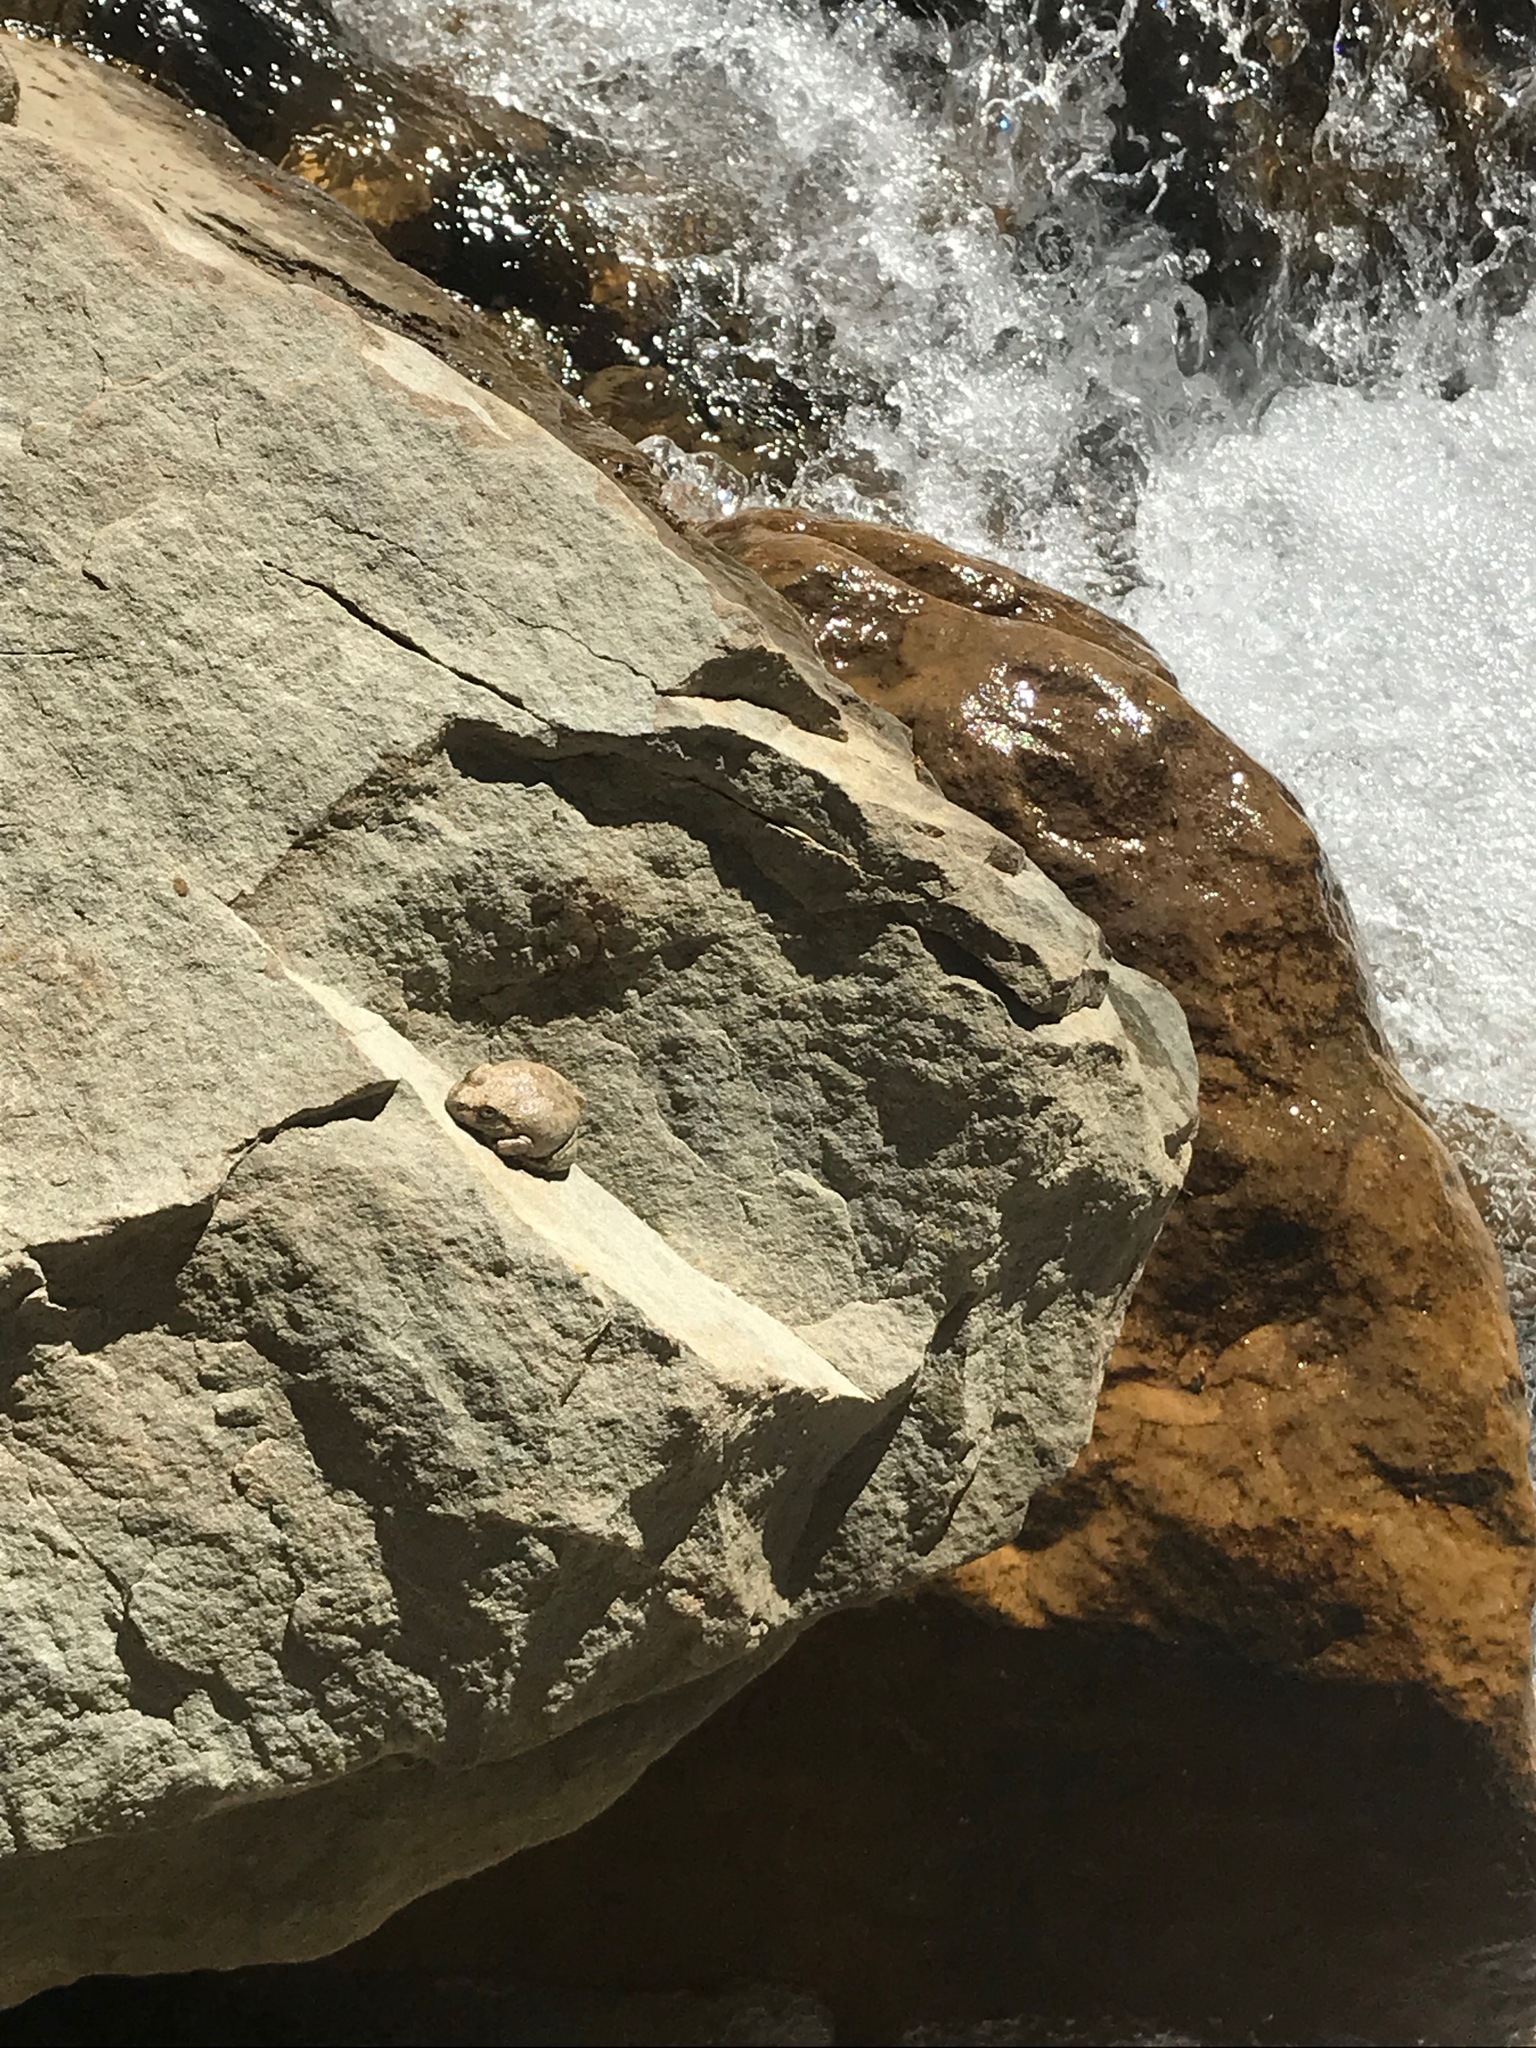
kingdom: Animalia
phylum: Chordata
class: Amphibia
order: Anura
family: Hylidae
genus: Pseudacris
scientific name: Pseudacris cadaverina
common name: California chorus frog
